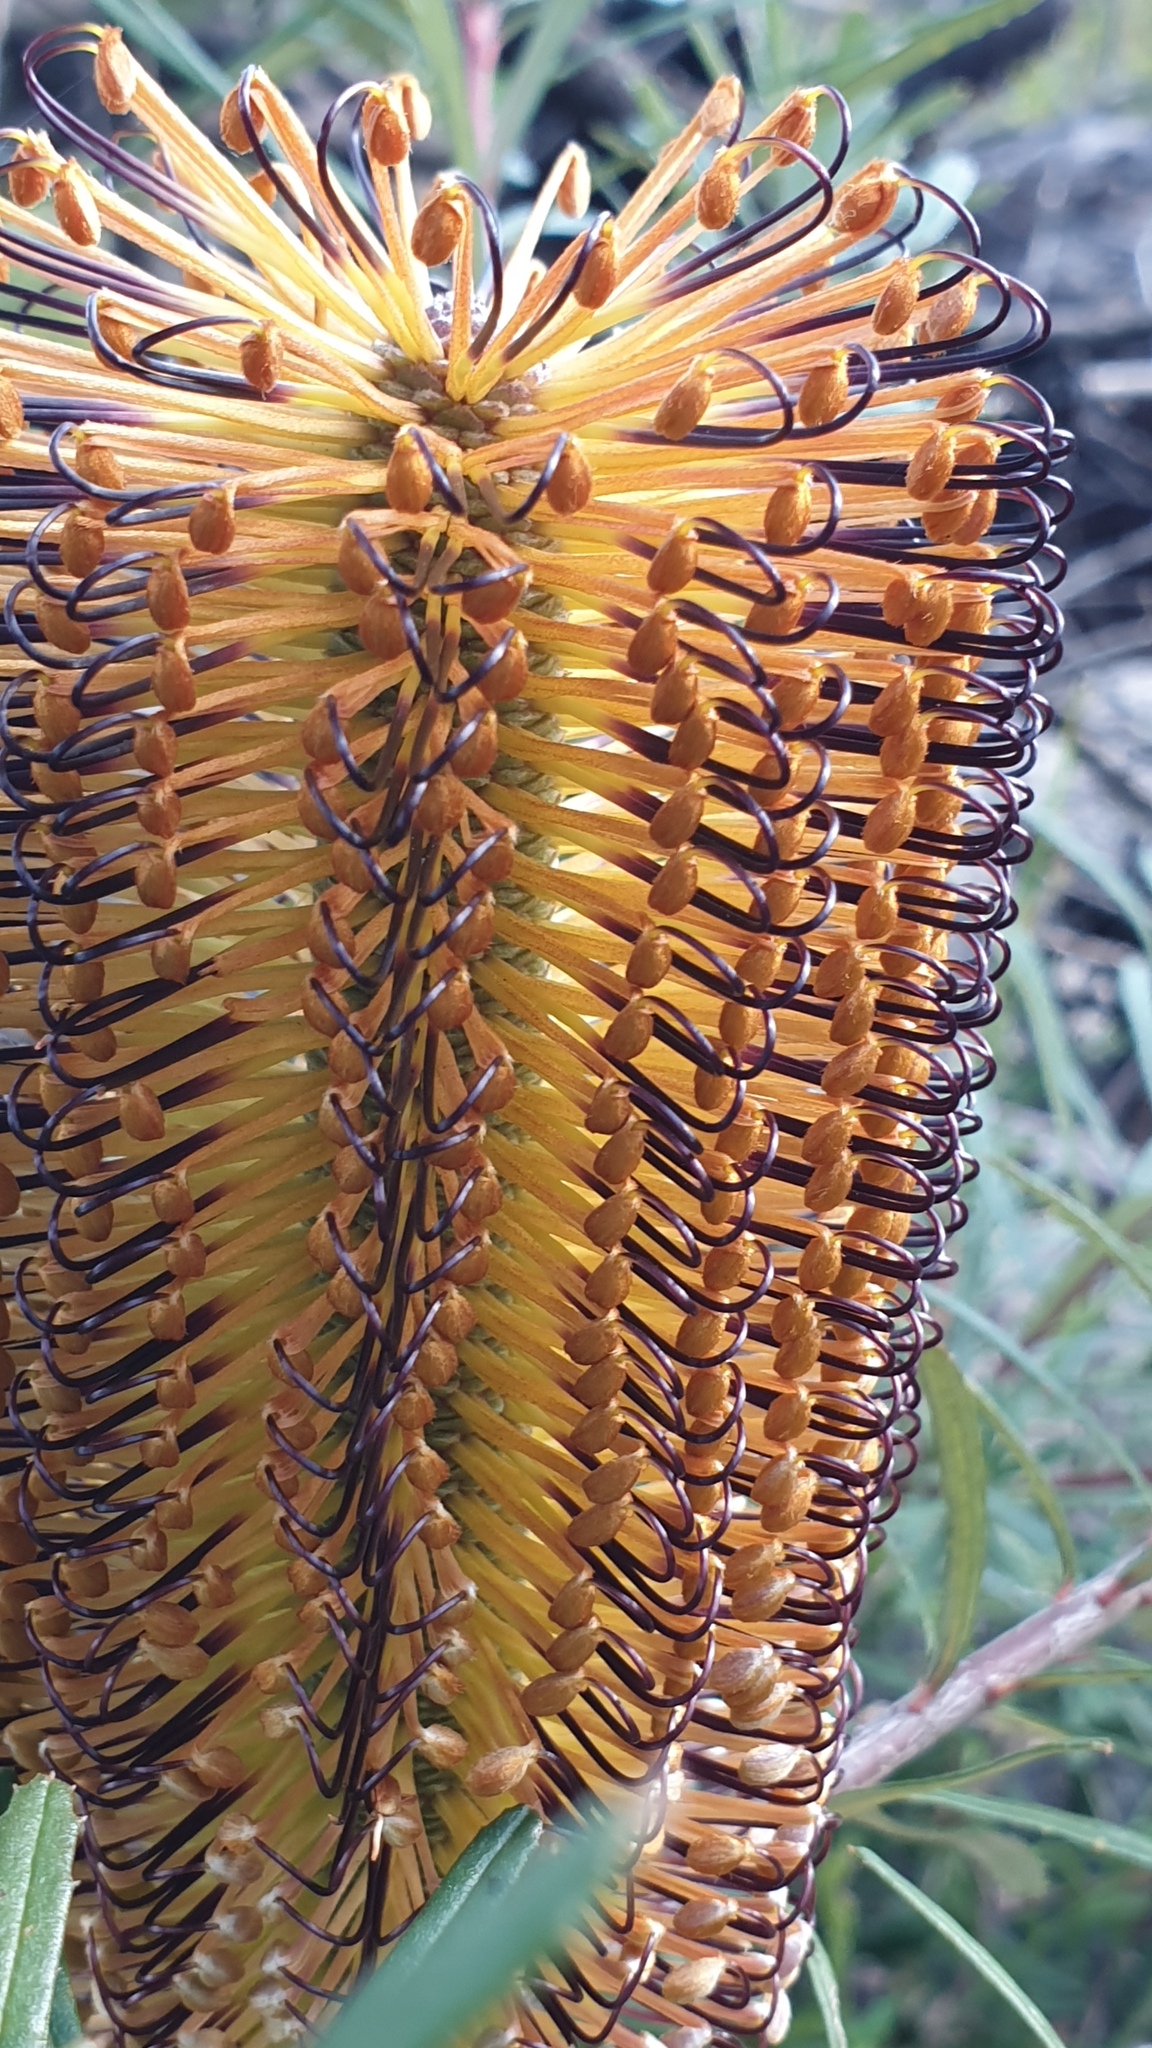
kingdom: Plantae
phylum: Tracheophyta
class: Magnoliopsida
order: Proteales
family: Proteaceae
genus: Banksia
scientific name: Banksia neoanglica
